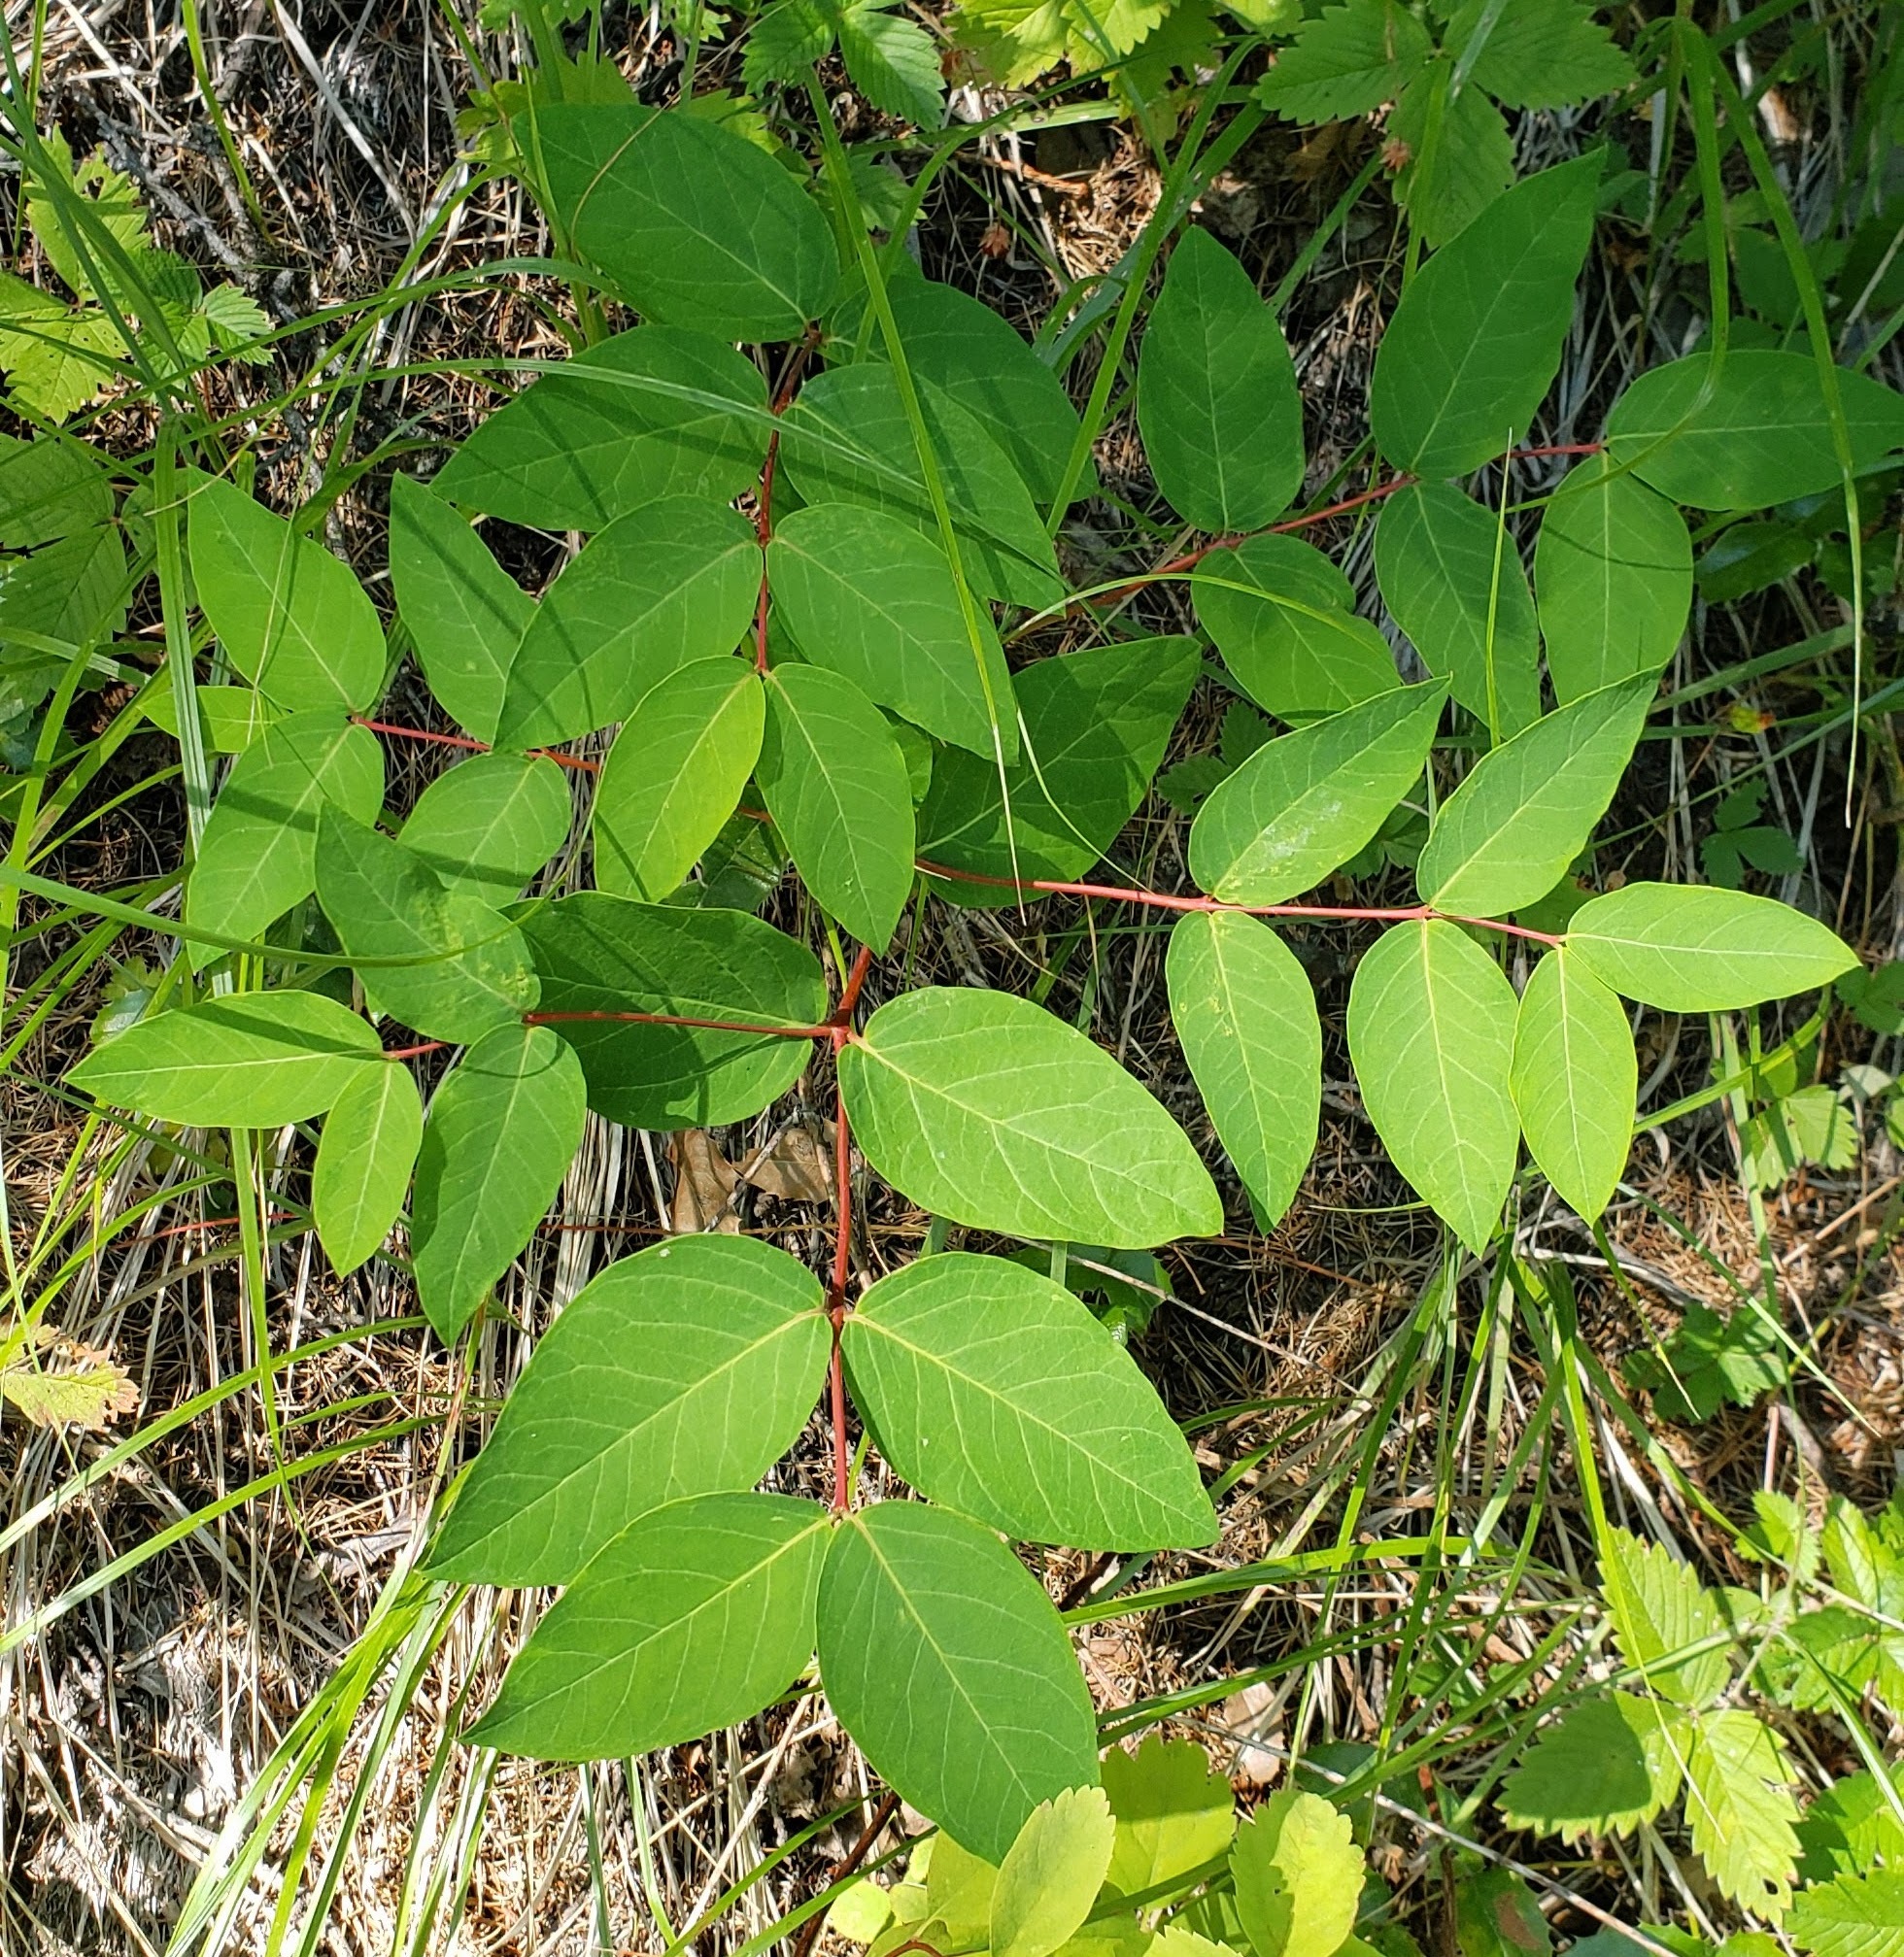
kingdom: Plantae
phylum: Tracheophyta
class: Magnoliopsida
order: Gentianales
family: Apocynaceae
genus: Apocynum
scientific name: Apocynum androsaemifolium
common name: Spreading dogbane
